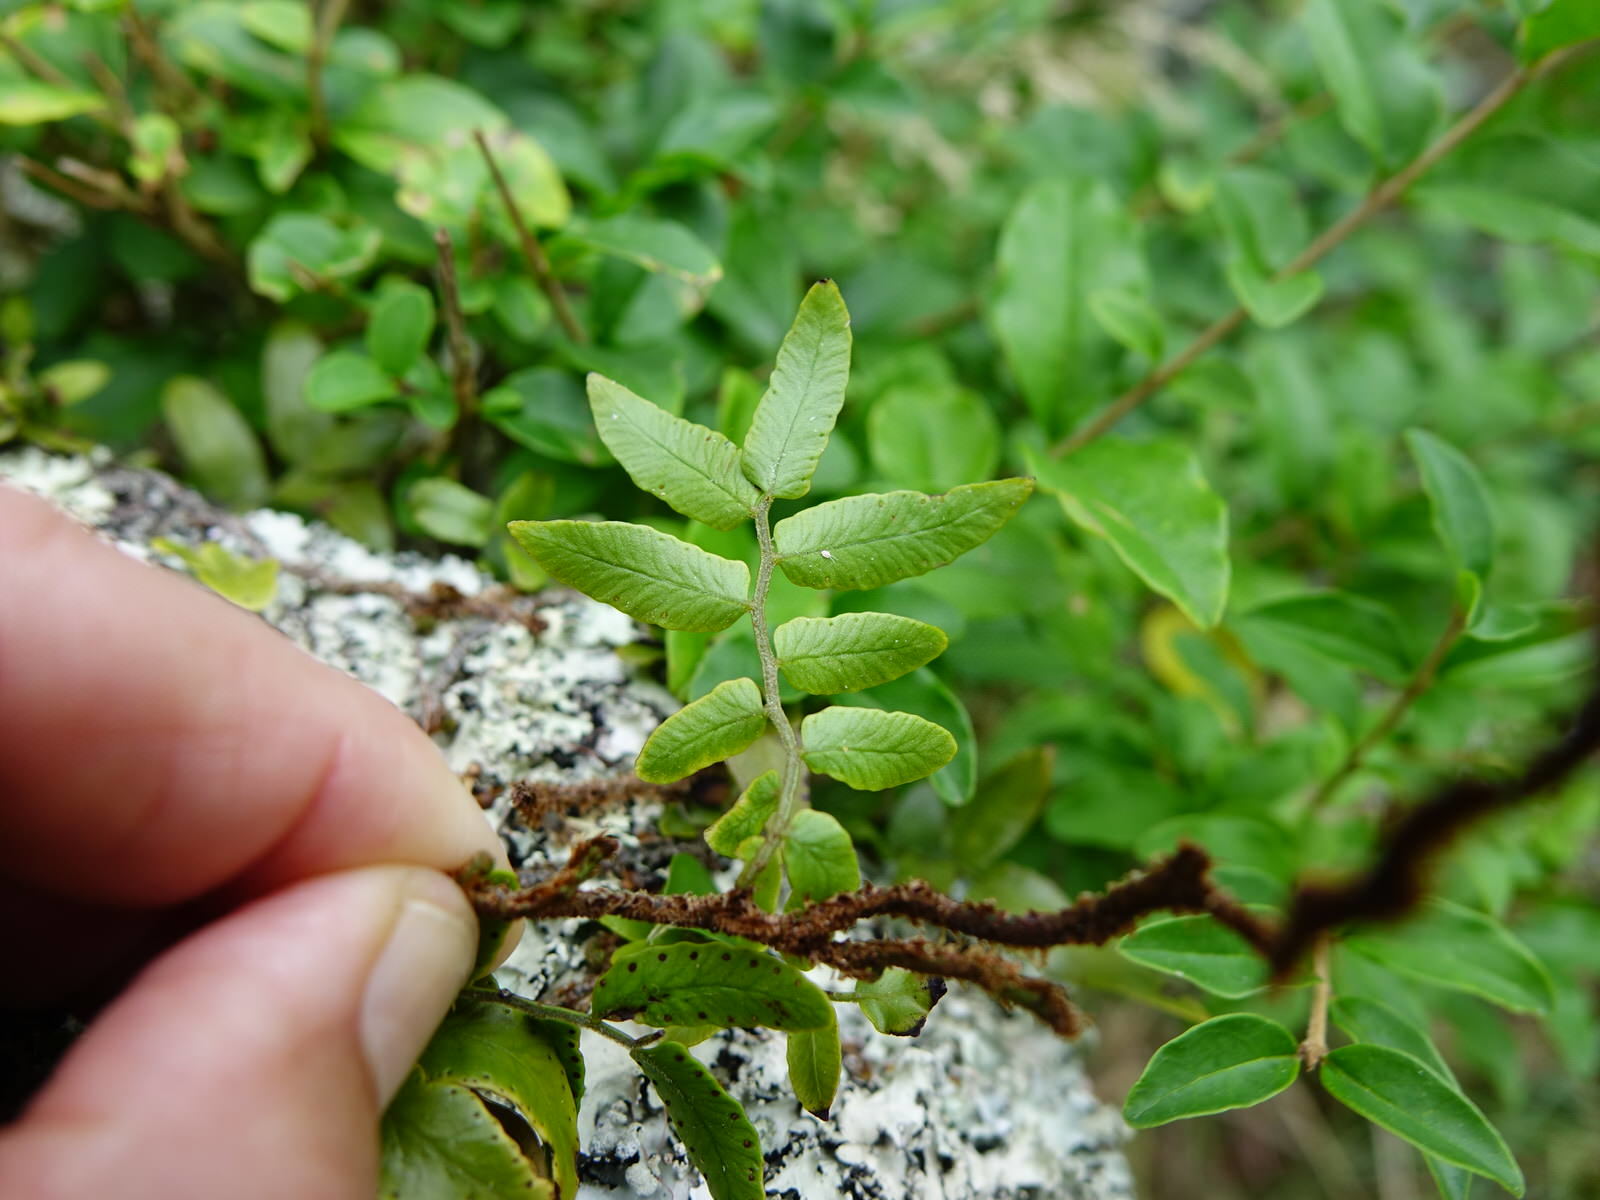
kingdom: Plantae
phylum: Tracheophyta
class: Polypodiopsida
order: Polypodiales
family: Tectariaceae
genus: Arthropteris
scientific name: Arthropteris tenella
